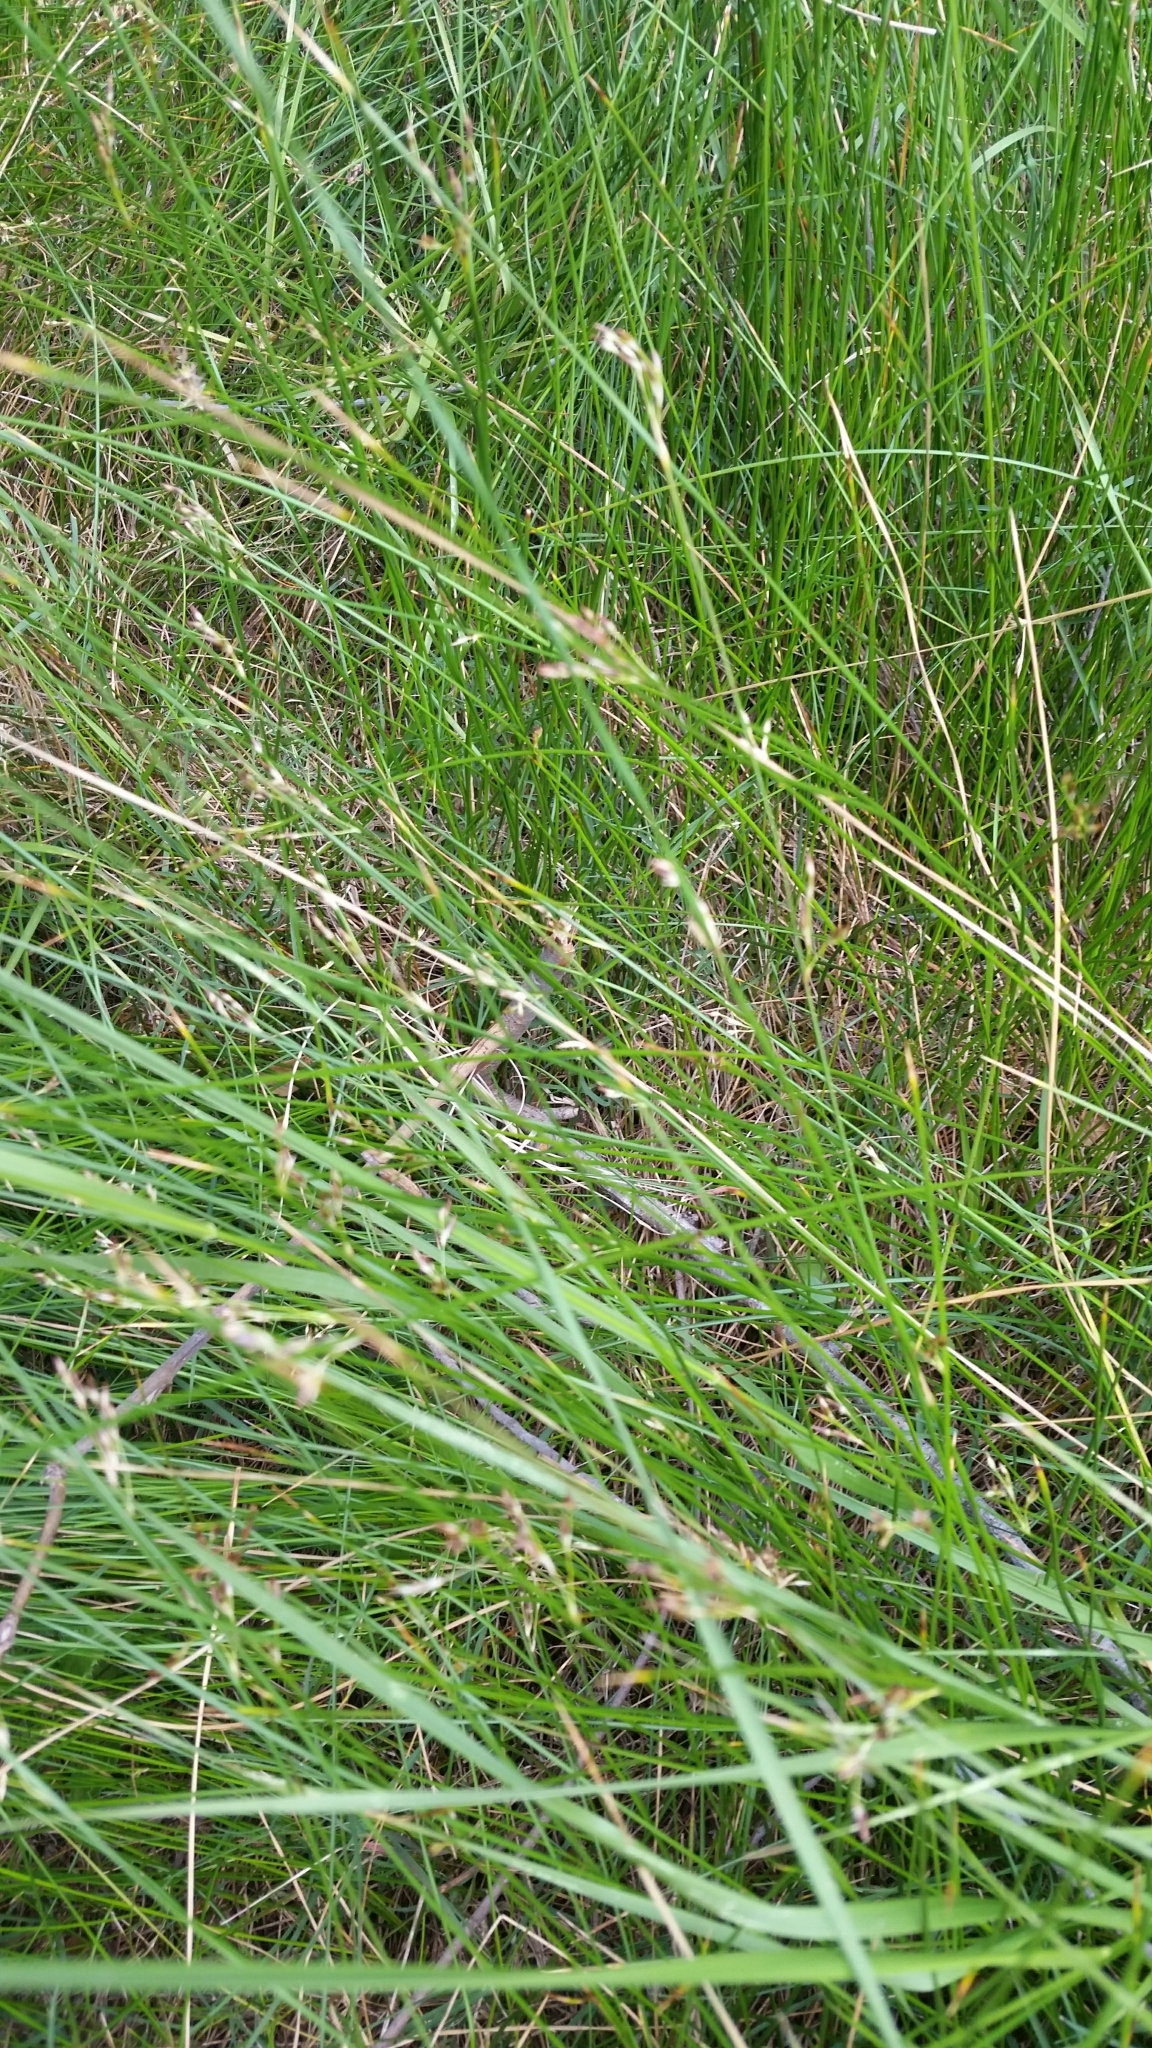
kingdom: Plantae
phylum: Tracheophyta
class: Liliopsida
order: Poales
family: Juncaceae
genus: Juncus
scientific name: Juncus
